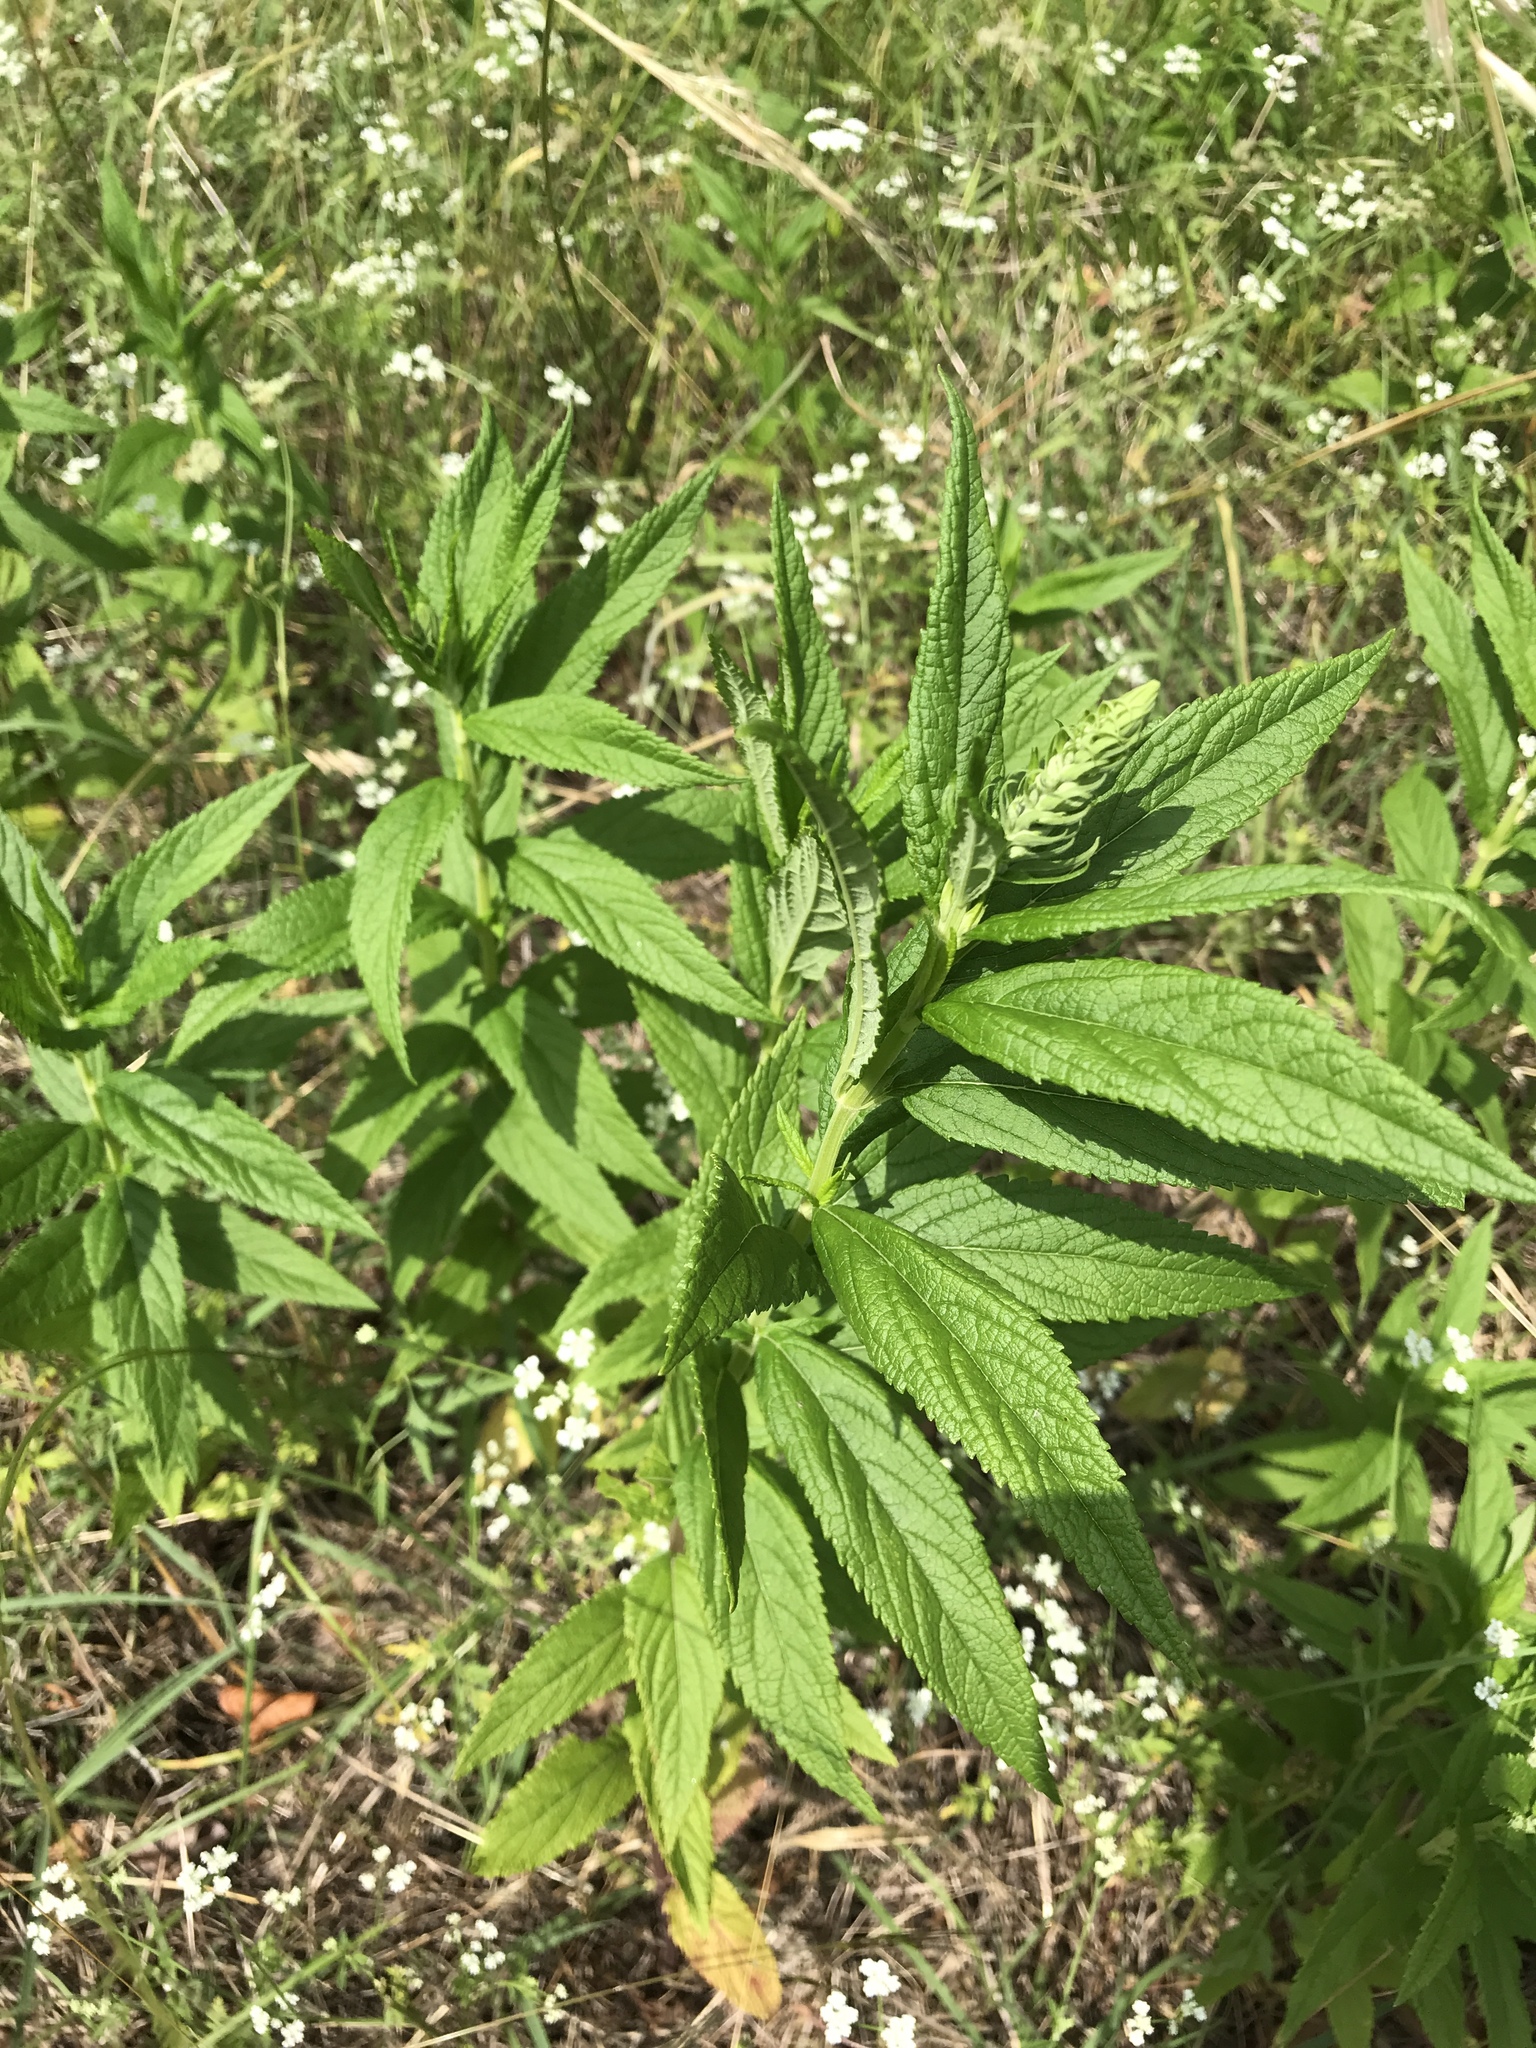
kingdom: Plantae
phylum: Tracheophyta
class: Magnoliopsida
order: Lamiales
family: Lamiaceae
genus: Teucrium
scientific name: Teucrium canadense
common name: American germander
